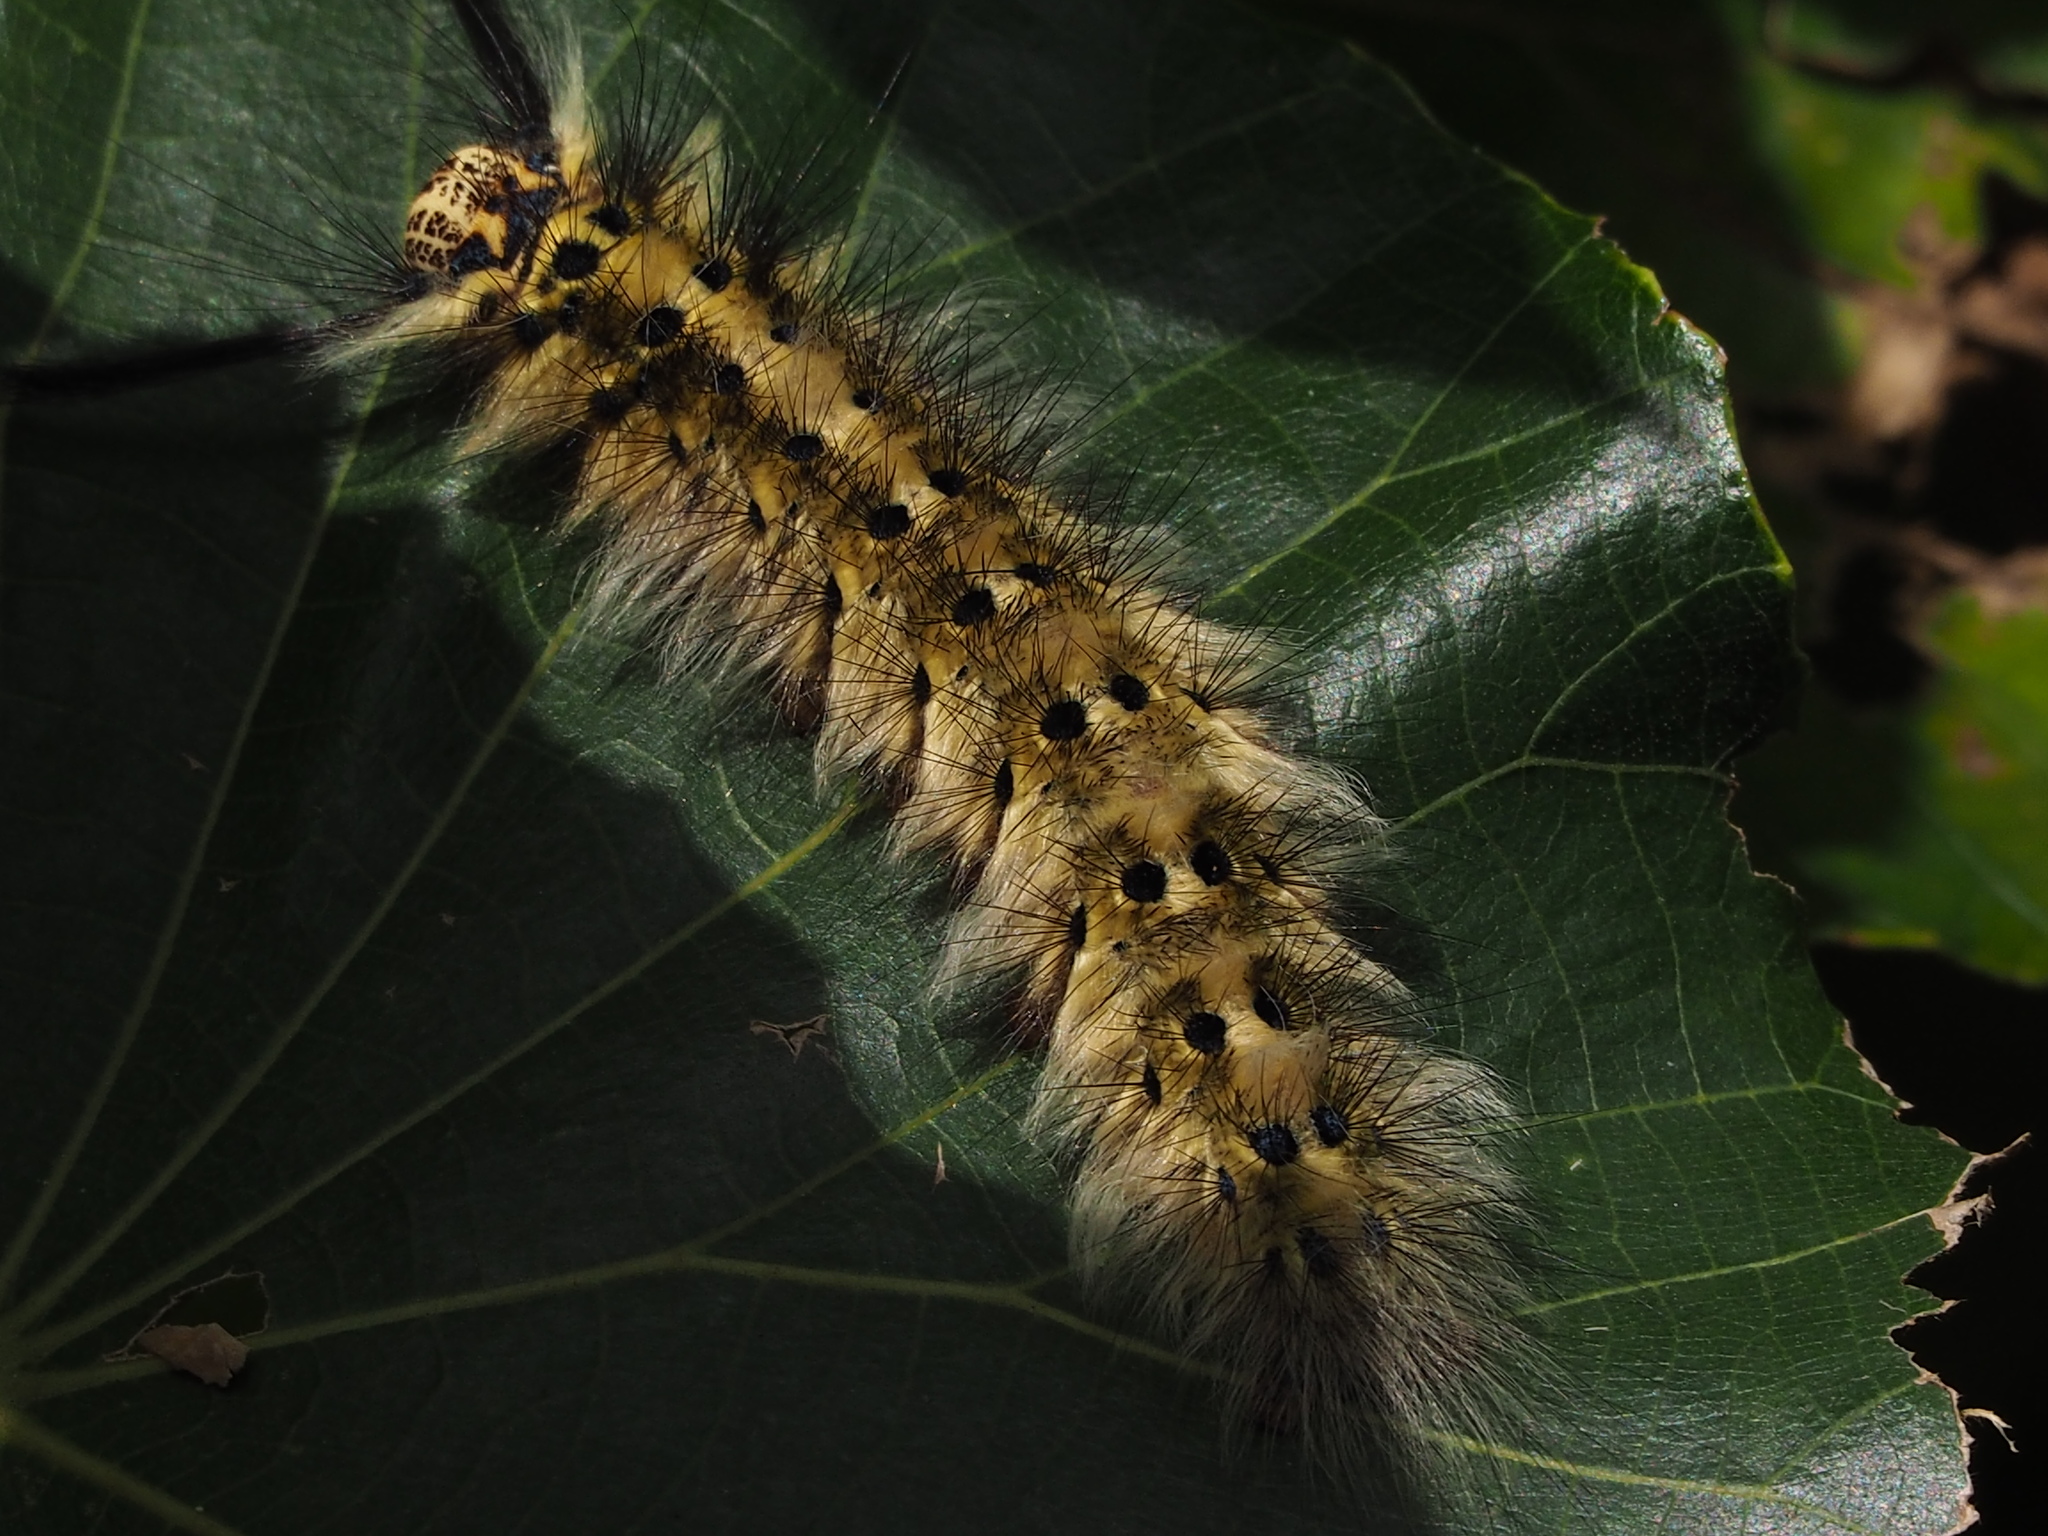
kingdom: Animalia
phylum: Arthropoda
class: Insecta
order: Lepidoptera
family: Lasiocampidae
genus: Trabala
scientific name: Trabala vishnou
